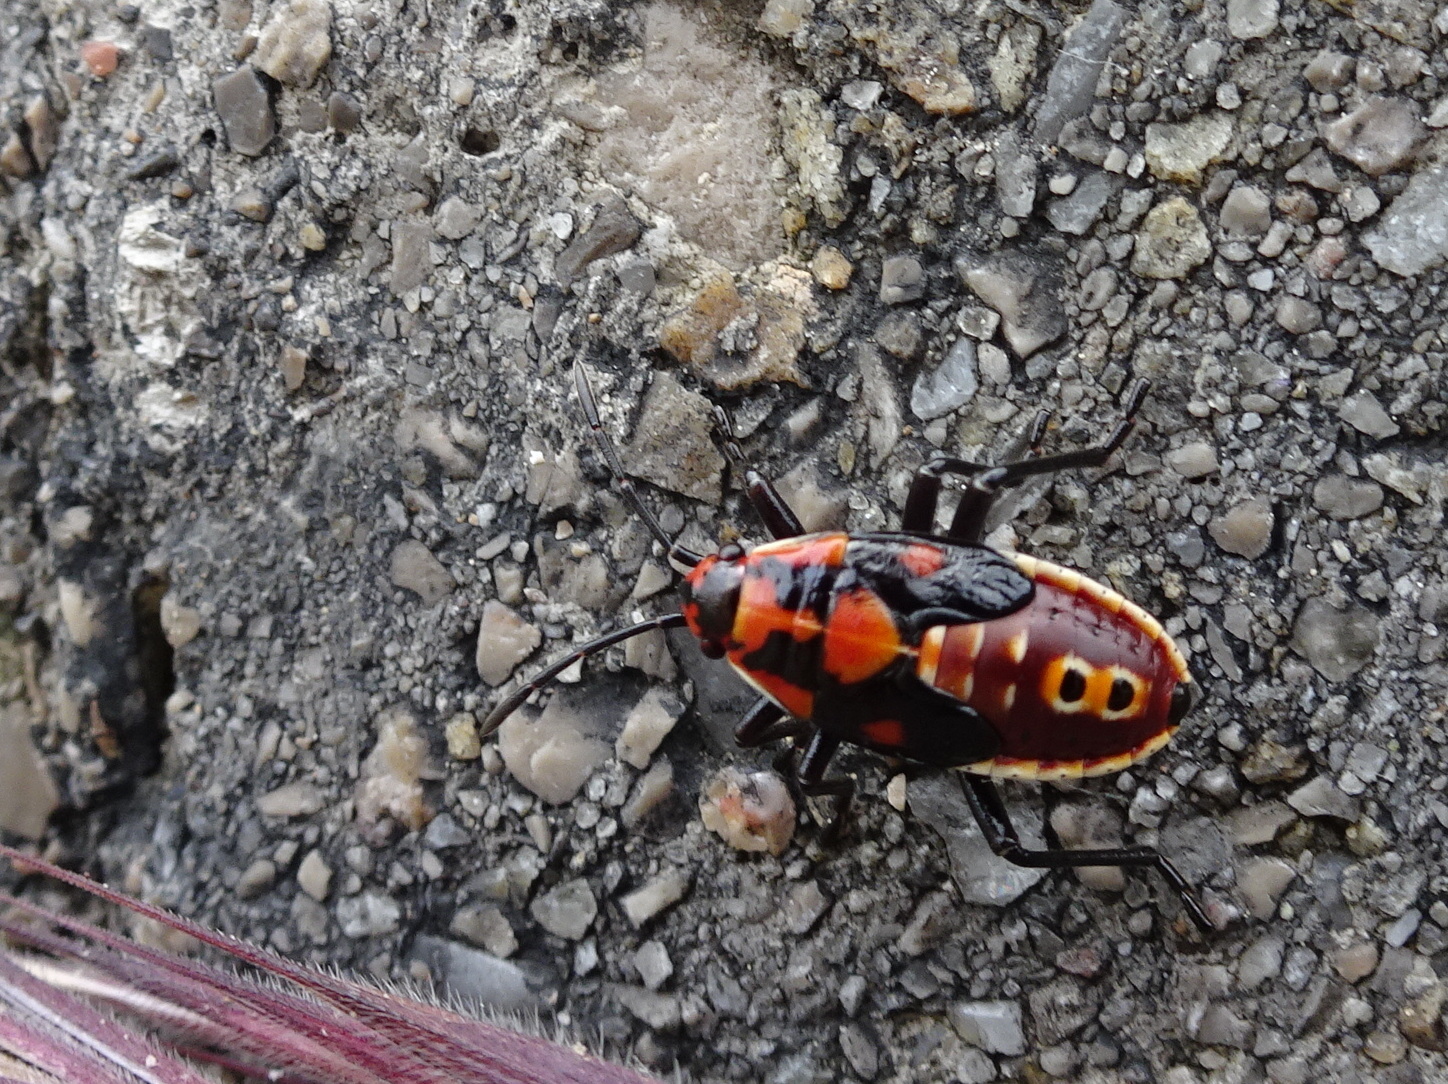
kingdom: Animalia
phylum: Arthropoda
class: Insecta
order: Hemiptera
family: Lygaeidae
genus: Spilostethus
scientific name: Spilostethus pandurus
